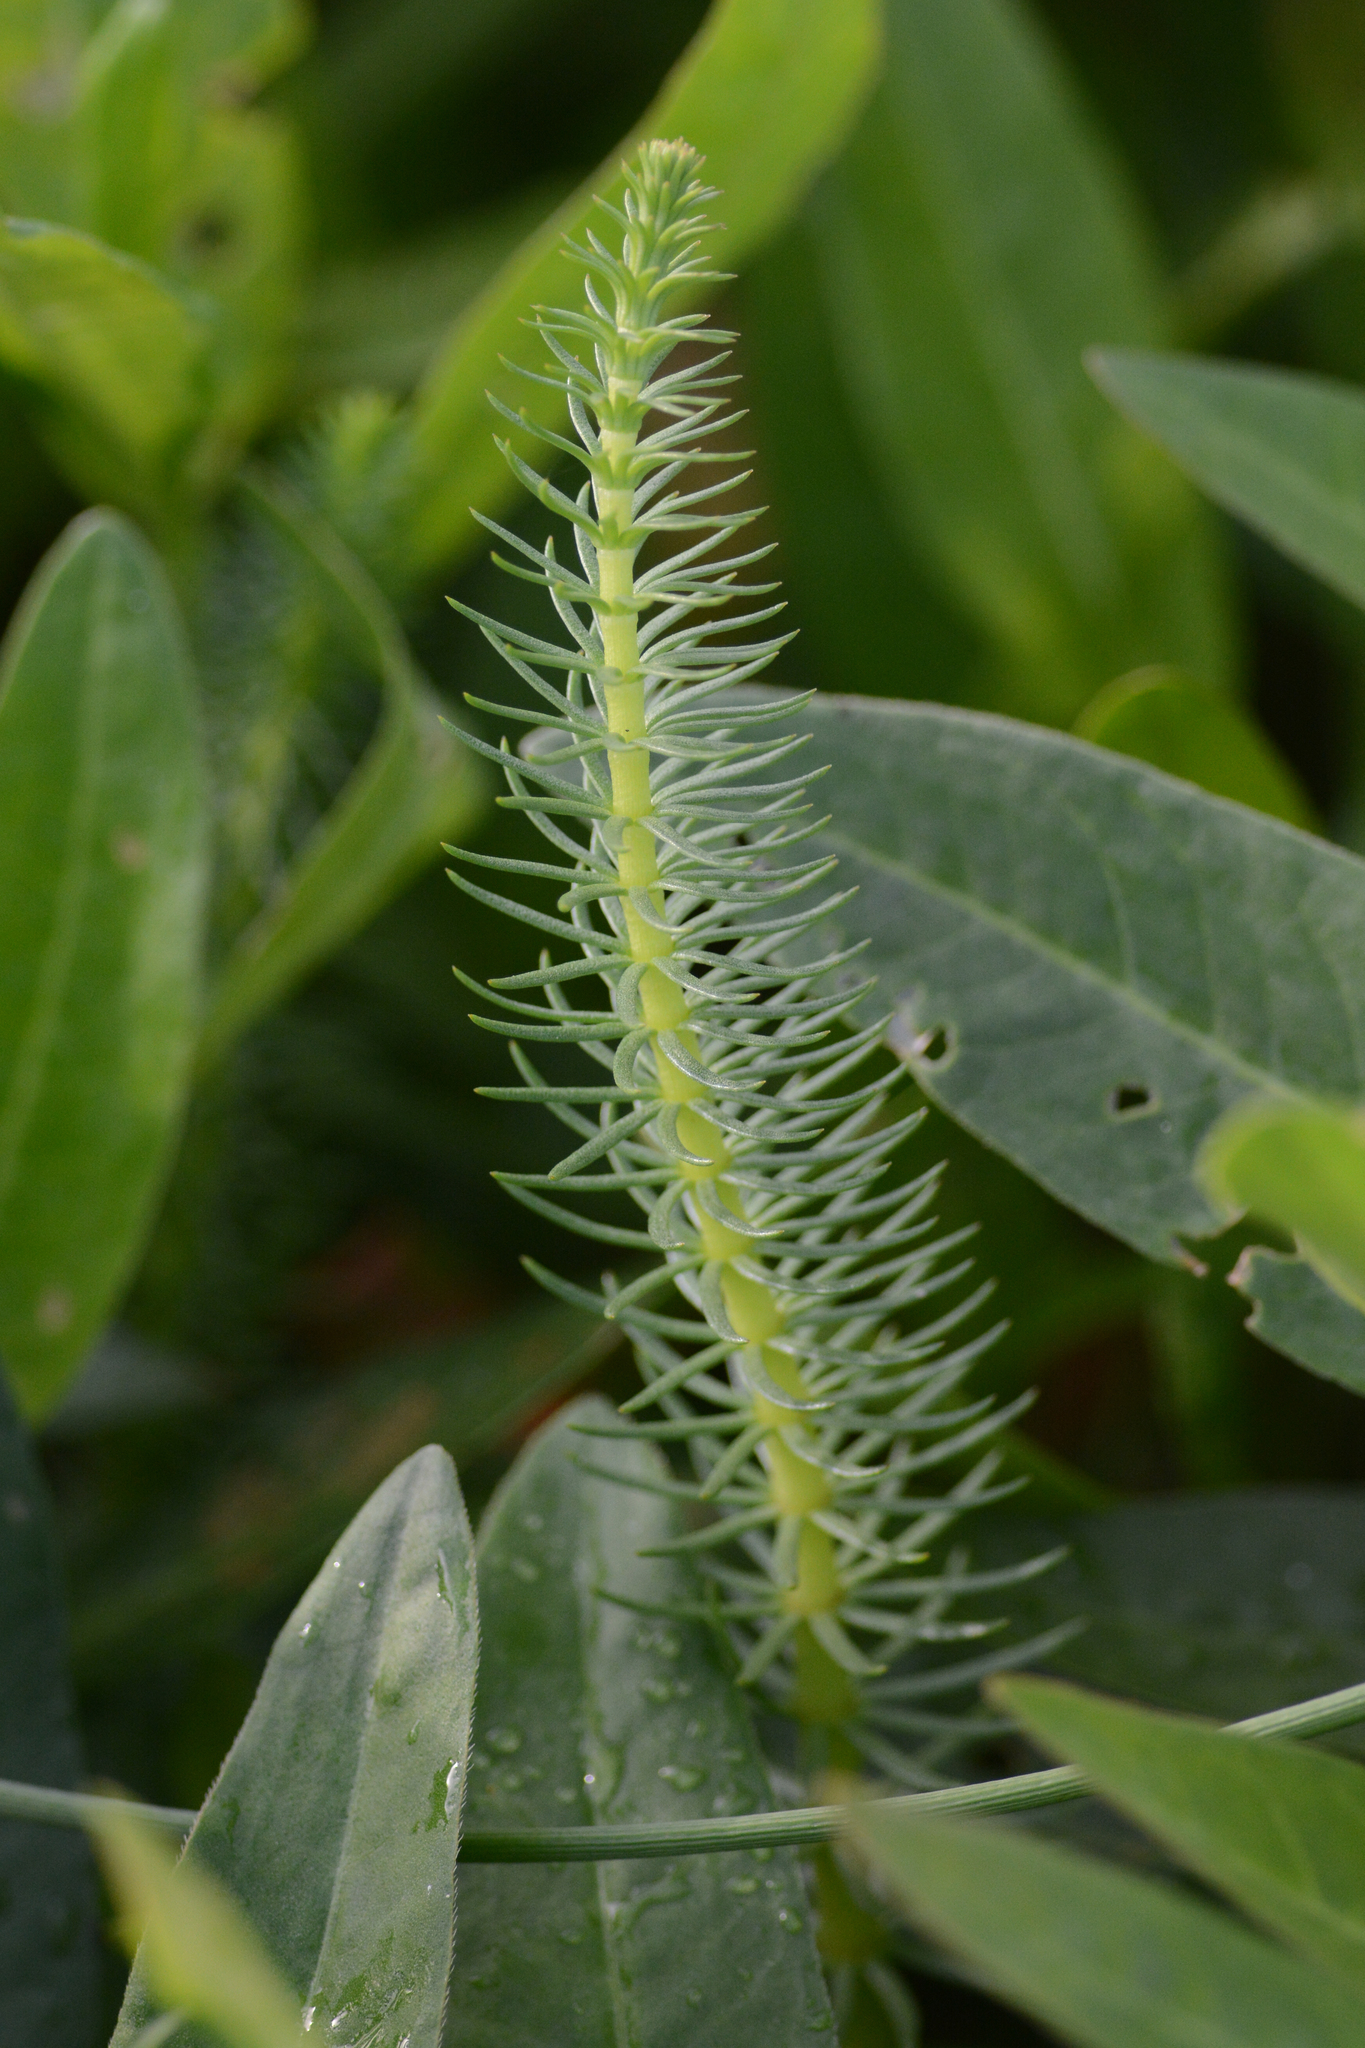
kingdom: Plantae
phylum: Tracheophyta
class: Magnoliopsida
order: Lamiales
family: Plantaginaceae
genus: Hippuris
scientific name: Hippuris vulgaris
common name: Mare's-tail
